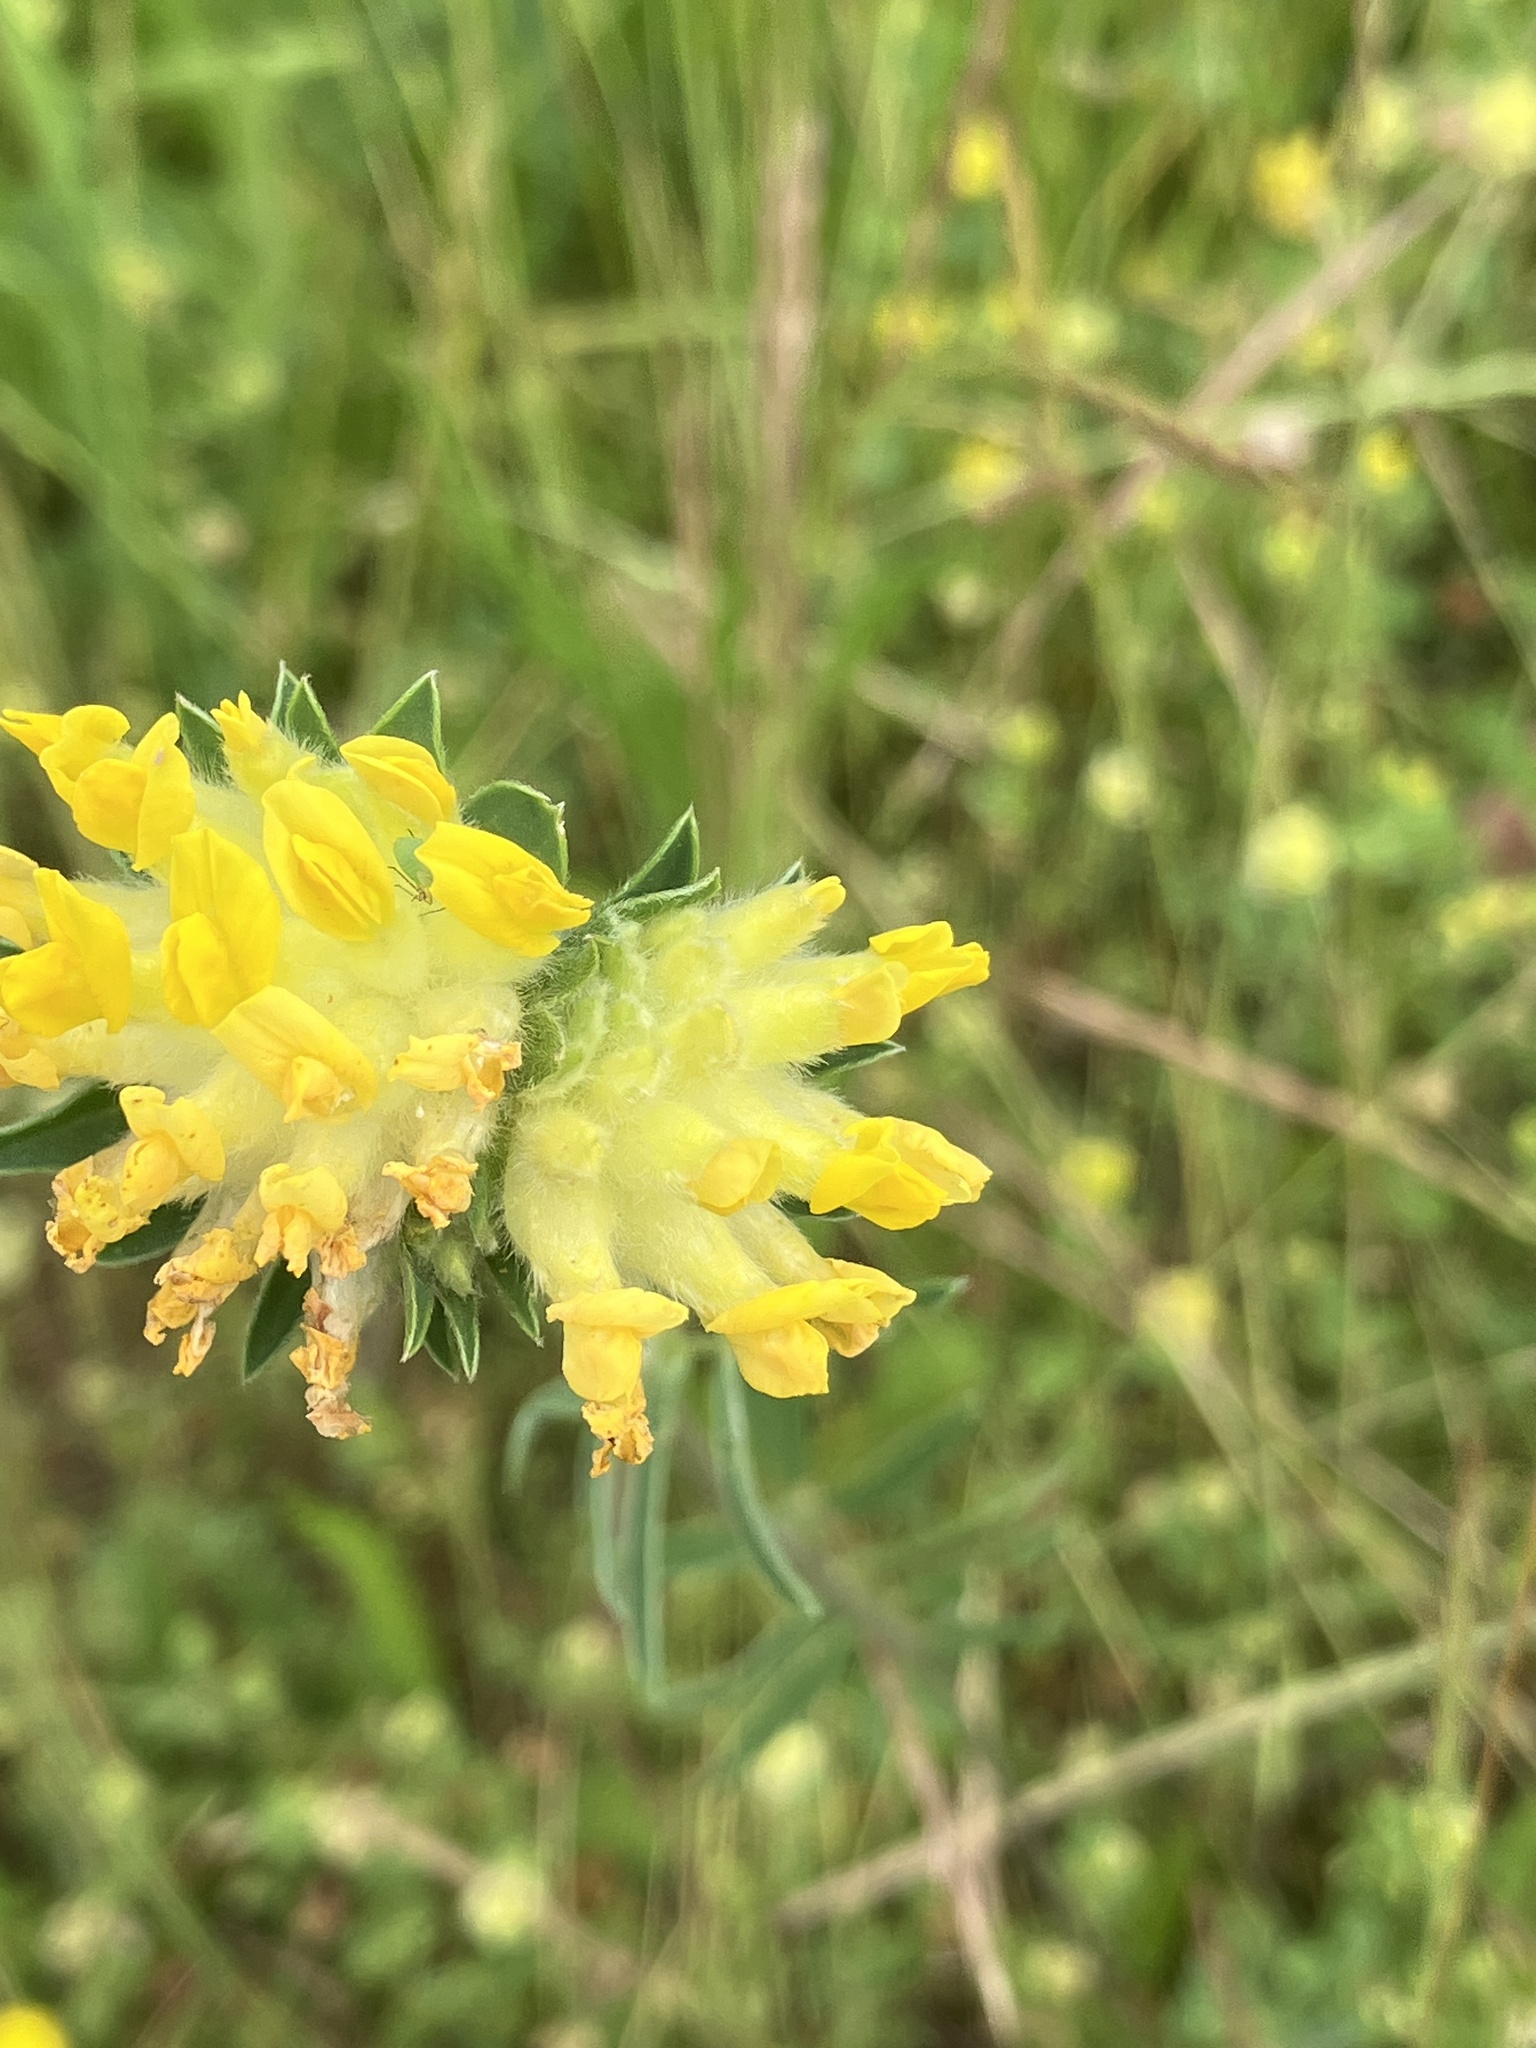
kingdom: Plantae
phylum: Tracheophyta
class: Magnoliopsida
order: Fabales
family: Fabaceae
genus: Anthyllis
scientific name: Anthyllis vulneraria
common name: Kidney vetch
